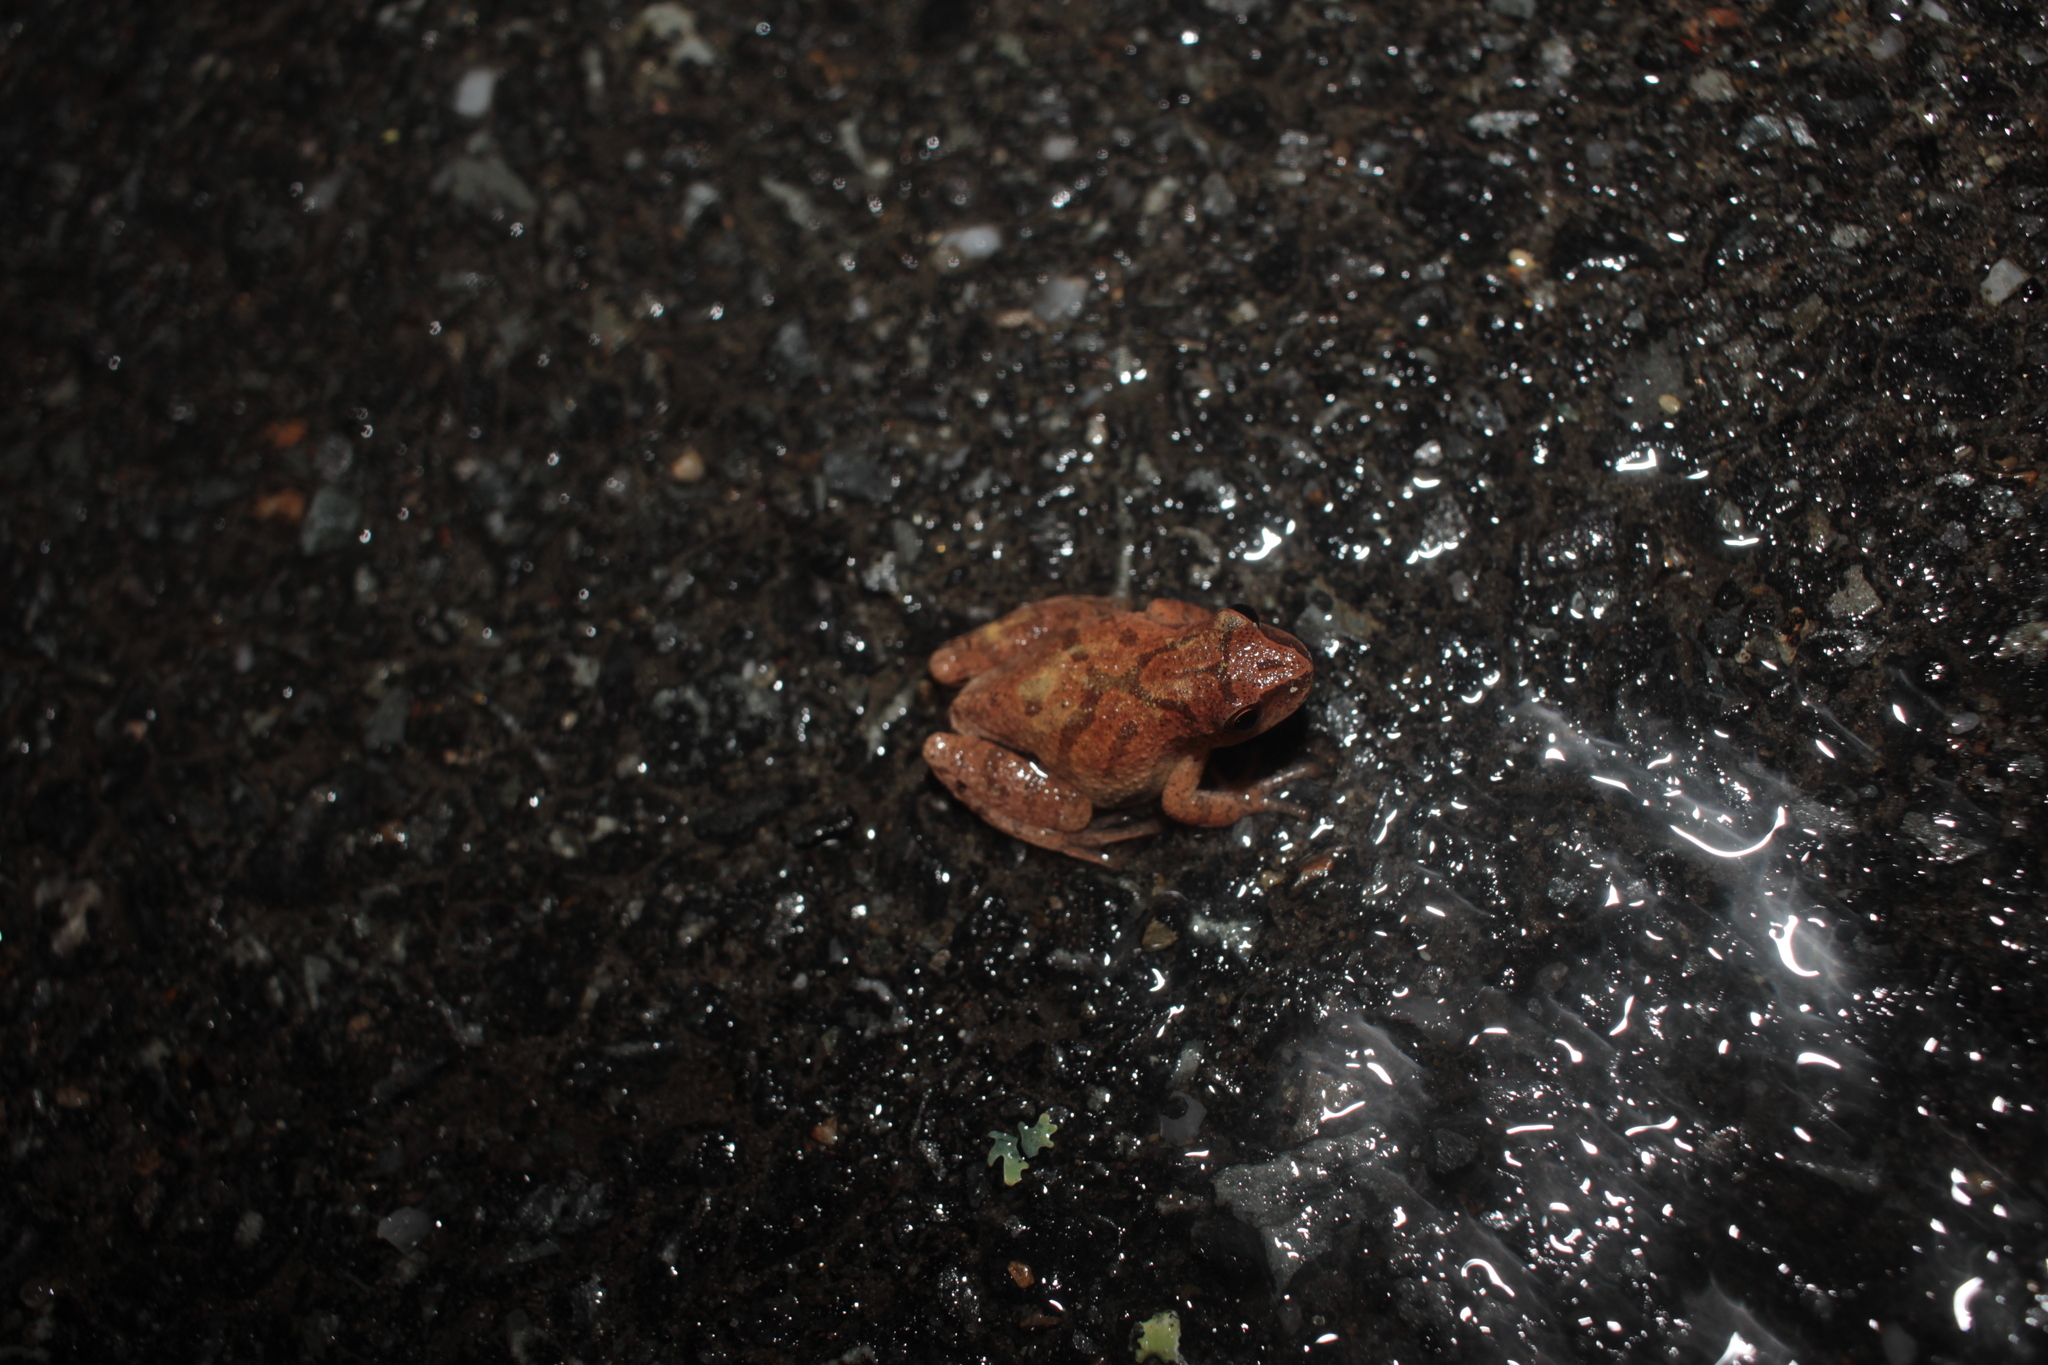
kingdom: Animalia
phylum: Chordata
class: Amphibia
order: Anura
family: Hylidae
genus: Pseudacris
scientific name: Pseudacris crucifer
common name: Spring peeper
